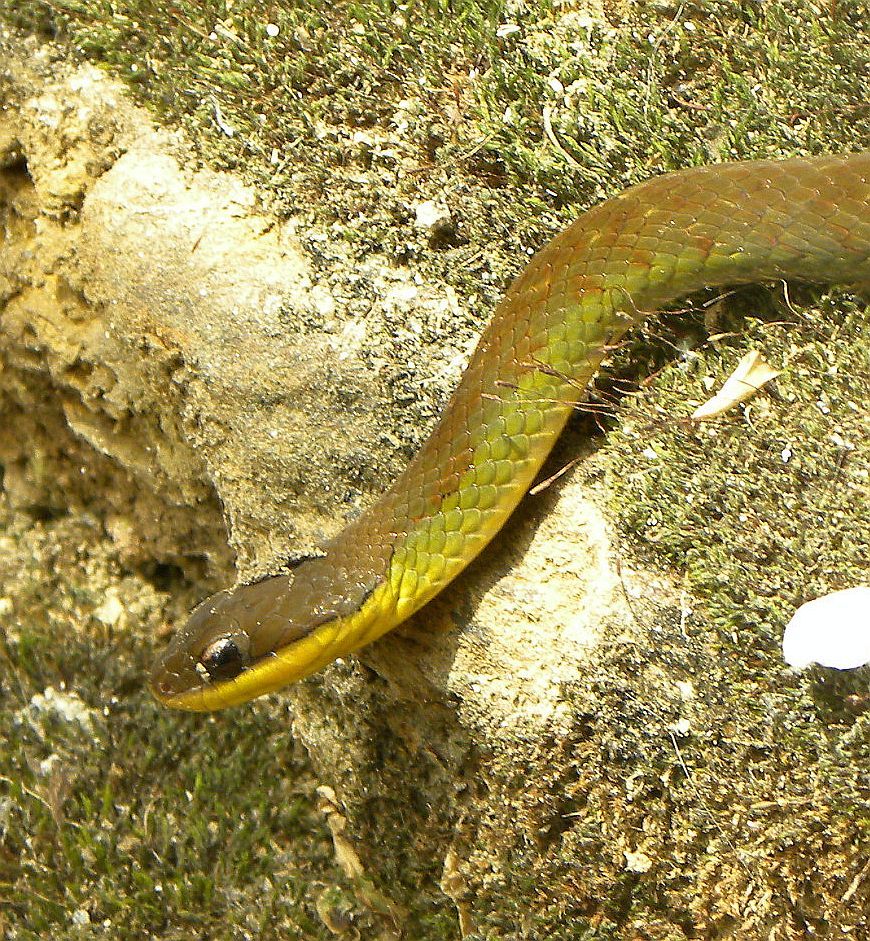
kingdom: Animalia
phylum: Chordata
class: Squamata
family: Colubridae
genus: Erythrolamprus
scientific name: Erythrolamprus epinephalus
